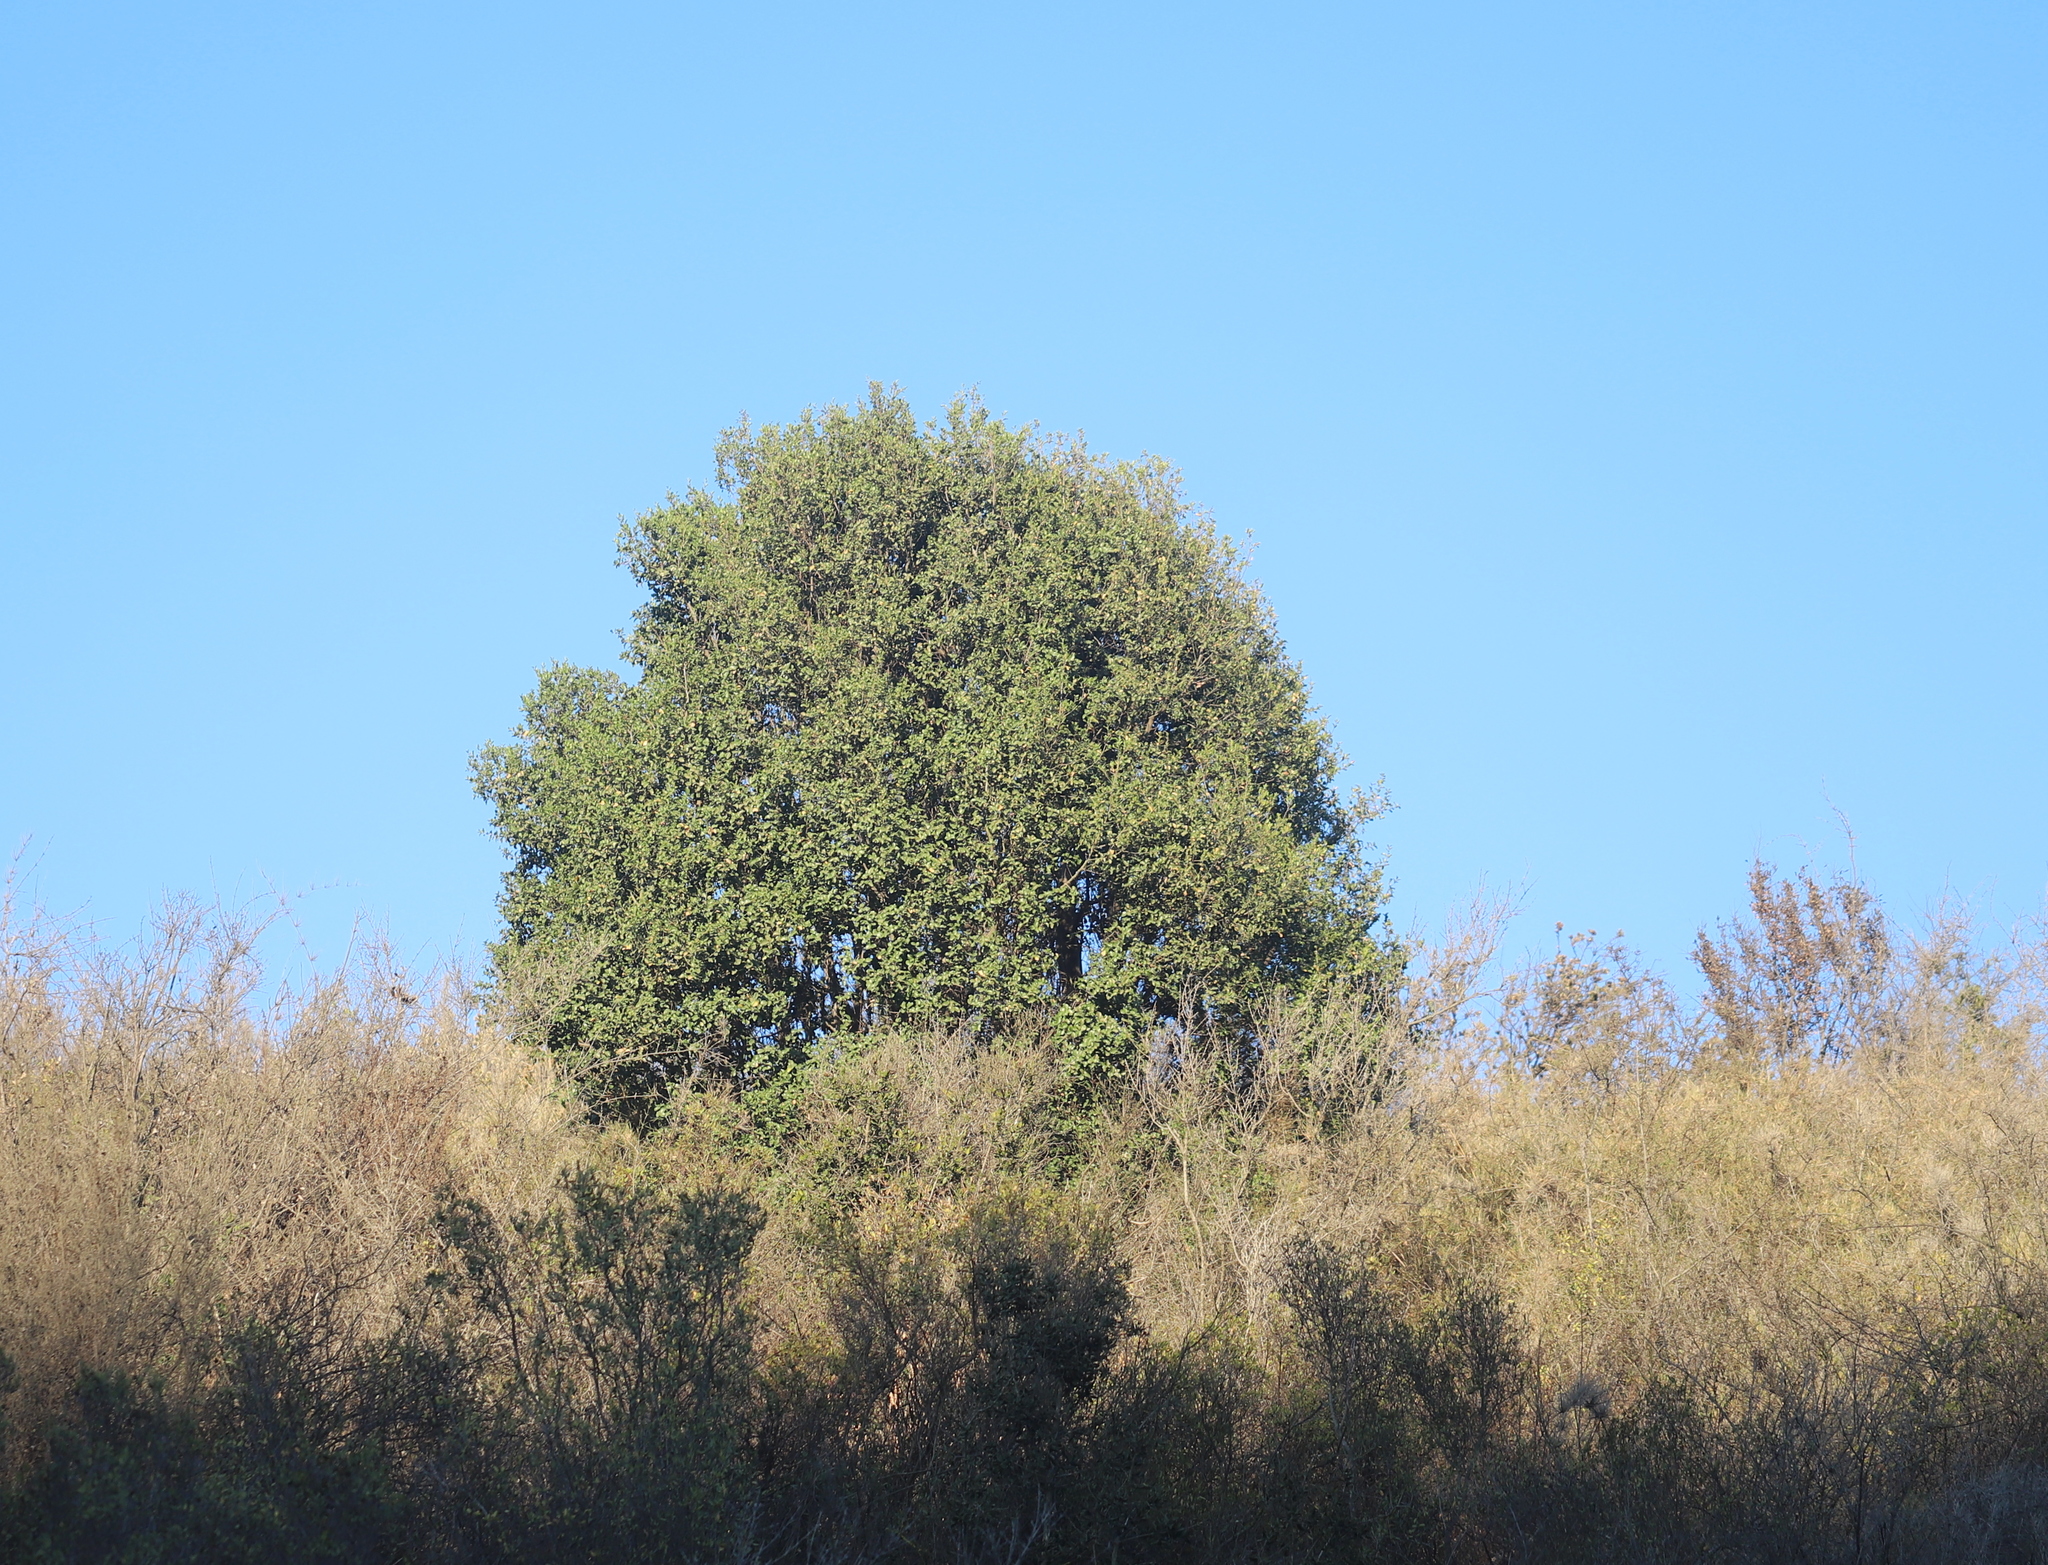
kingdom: Plantae
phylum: Tracheophyta
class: Magnoliopsida
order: Fabales
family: Quillajaceae
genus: Quillaja
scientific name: Quillaja saponaria
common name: Murillo's-bark
